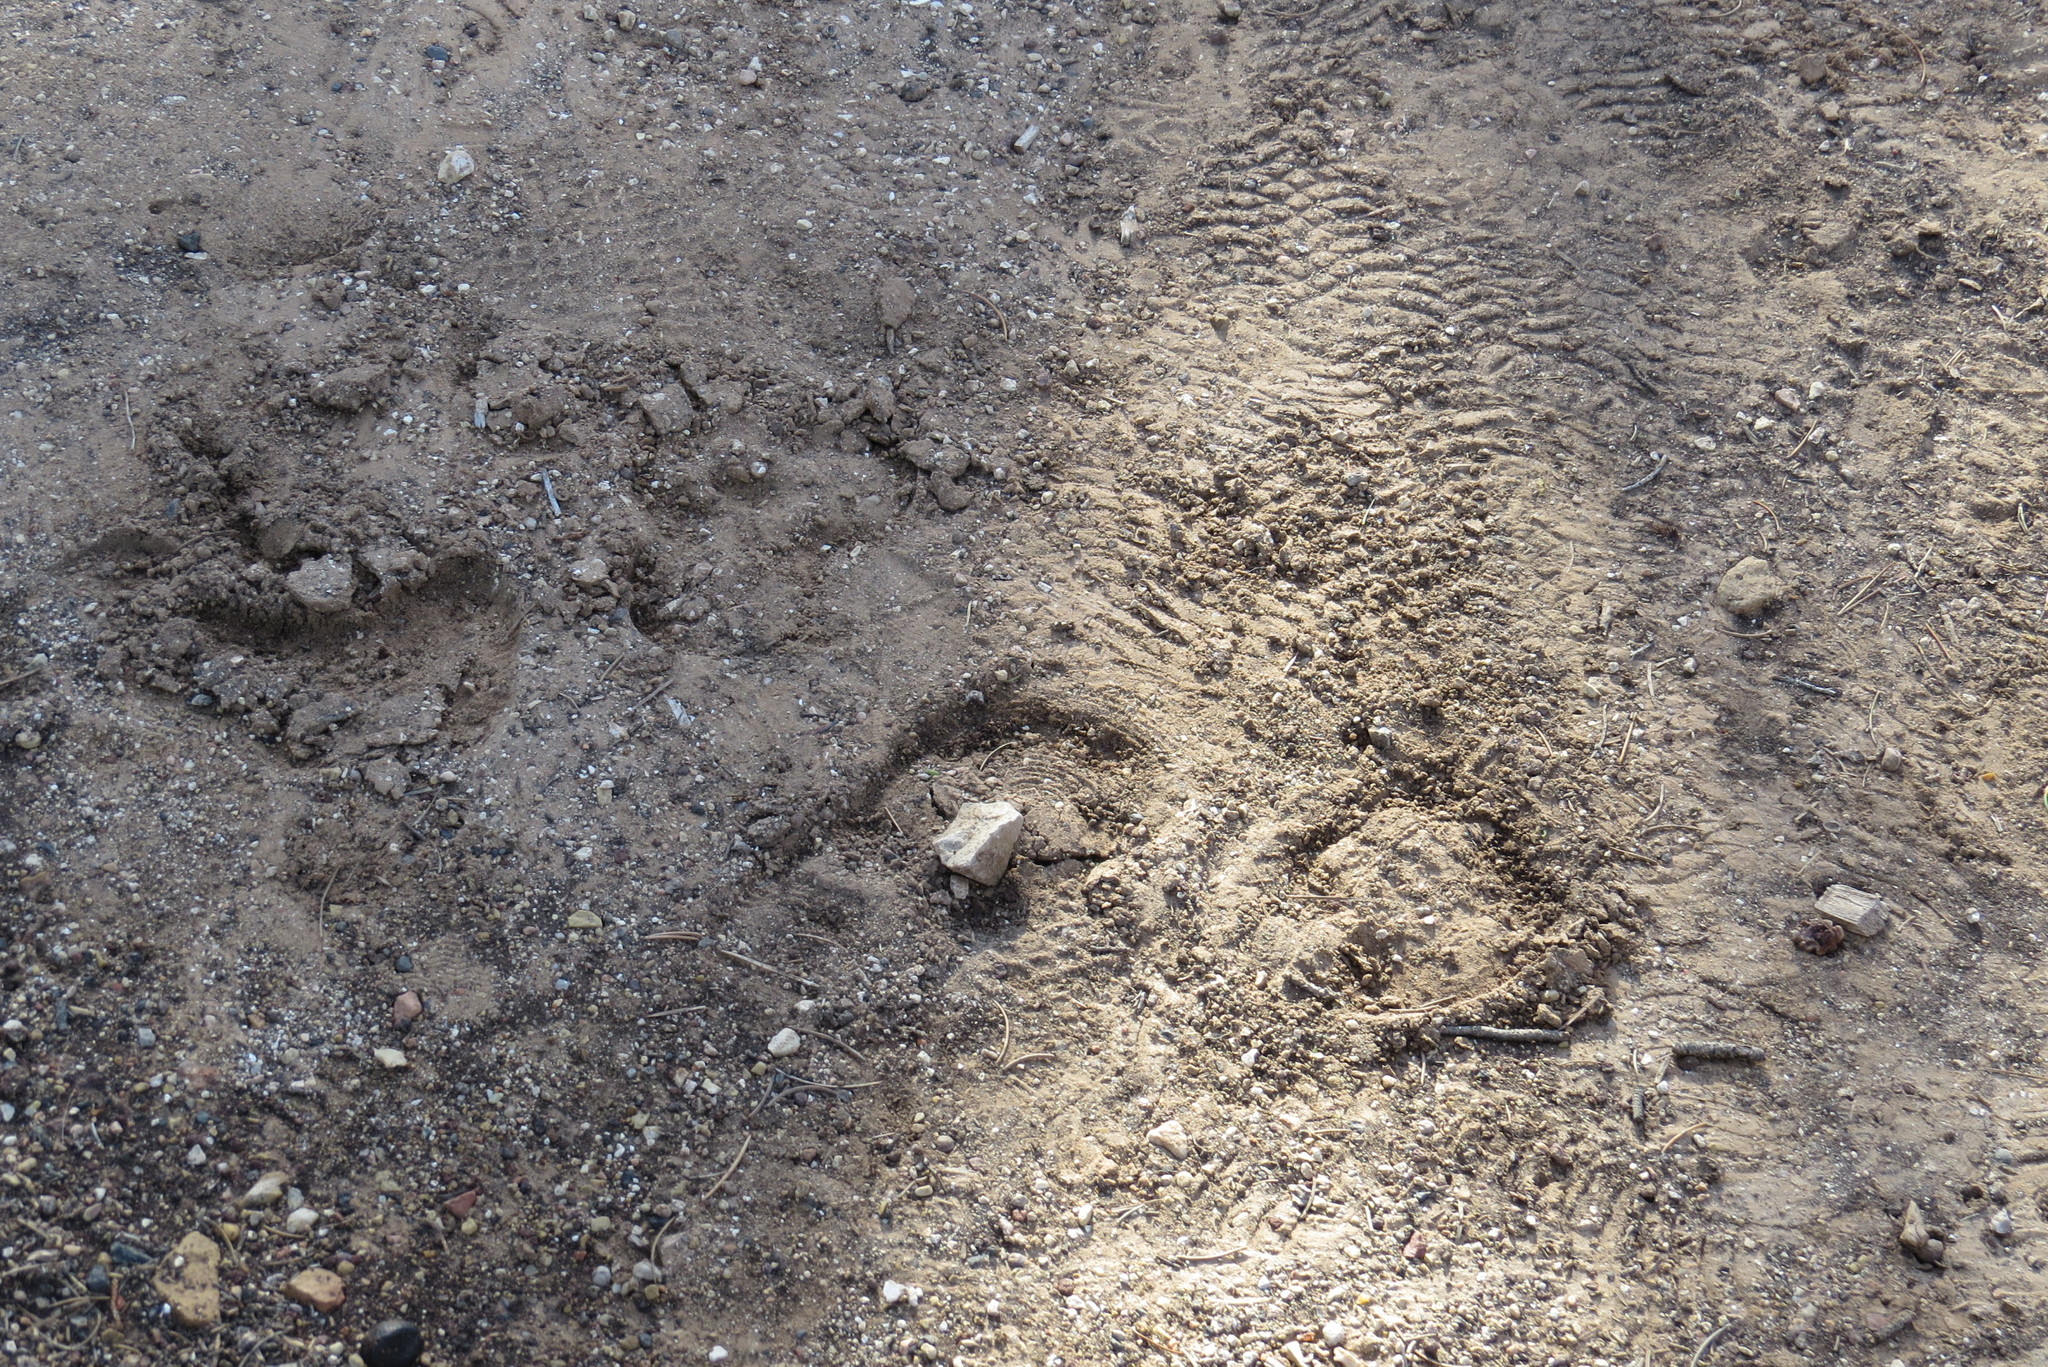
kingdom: Animalia
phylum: Chordata
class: Mammalia
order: Artiodactyla
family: Cervidae
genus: Cervus
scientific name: Cervus elaphus
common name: Red deer
